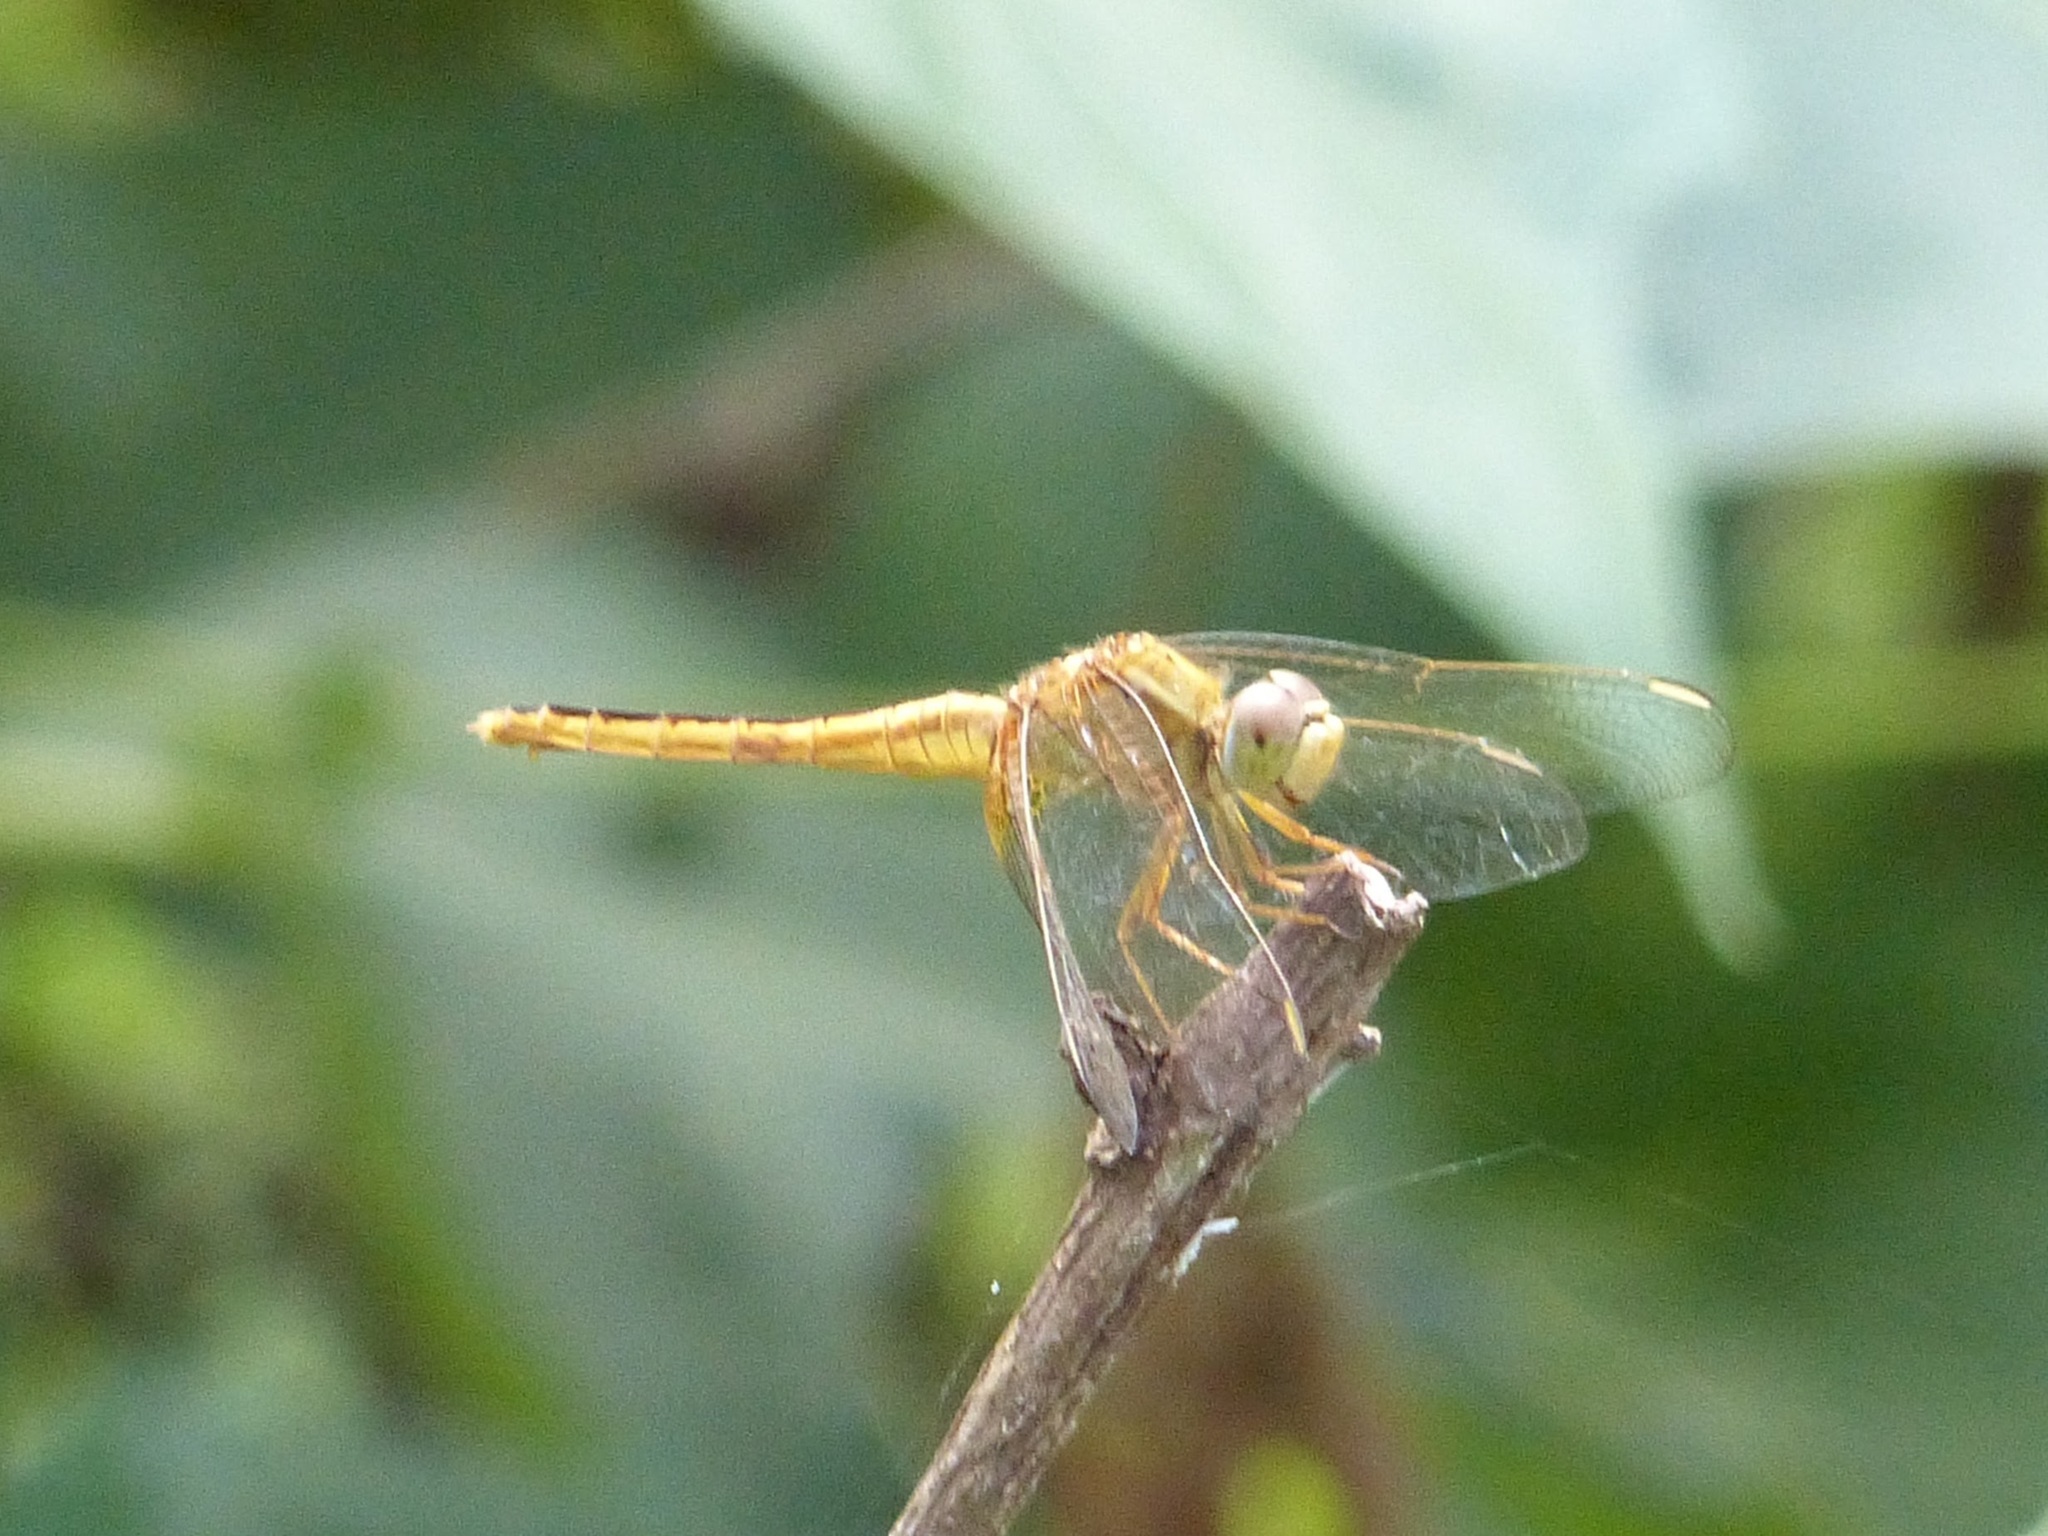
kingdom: Animalia
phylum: Arthropoda
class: Insecta
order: Odonata
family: Libellulidae
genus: Crocothemis
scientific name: Crocothemis servilia
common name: Scarlet skimmer
